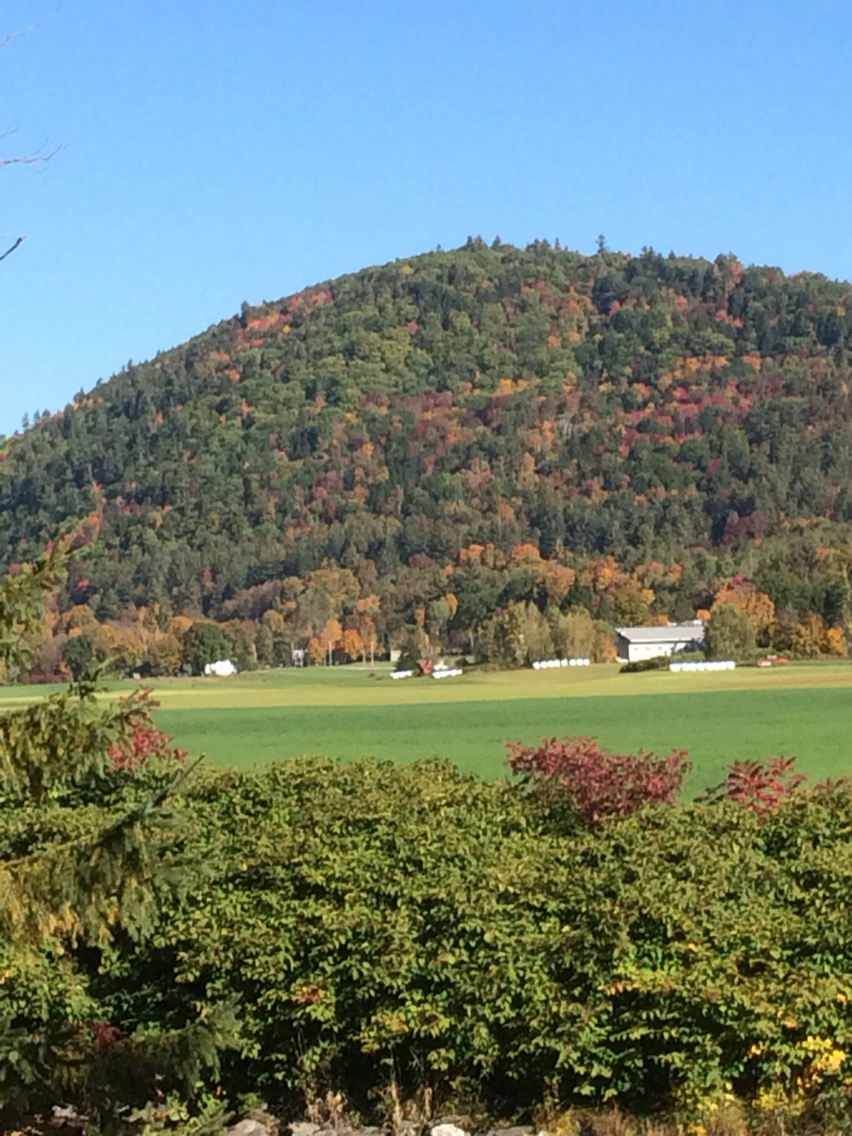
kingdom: Plantae
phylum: Tracheophyta
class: Magnoliopsida
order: Fagales
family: Fagaceae
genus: Quercus
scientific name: Quercus rubra
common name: Red oak
